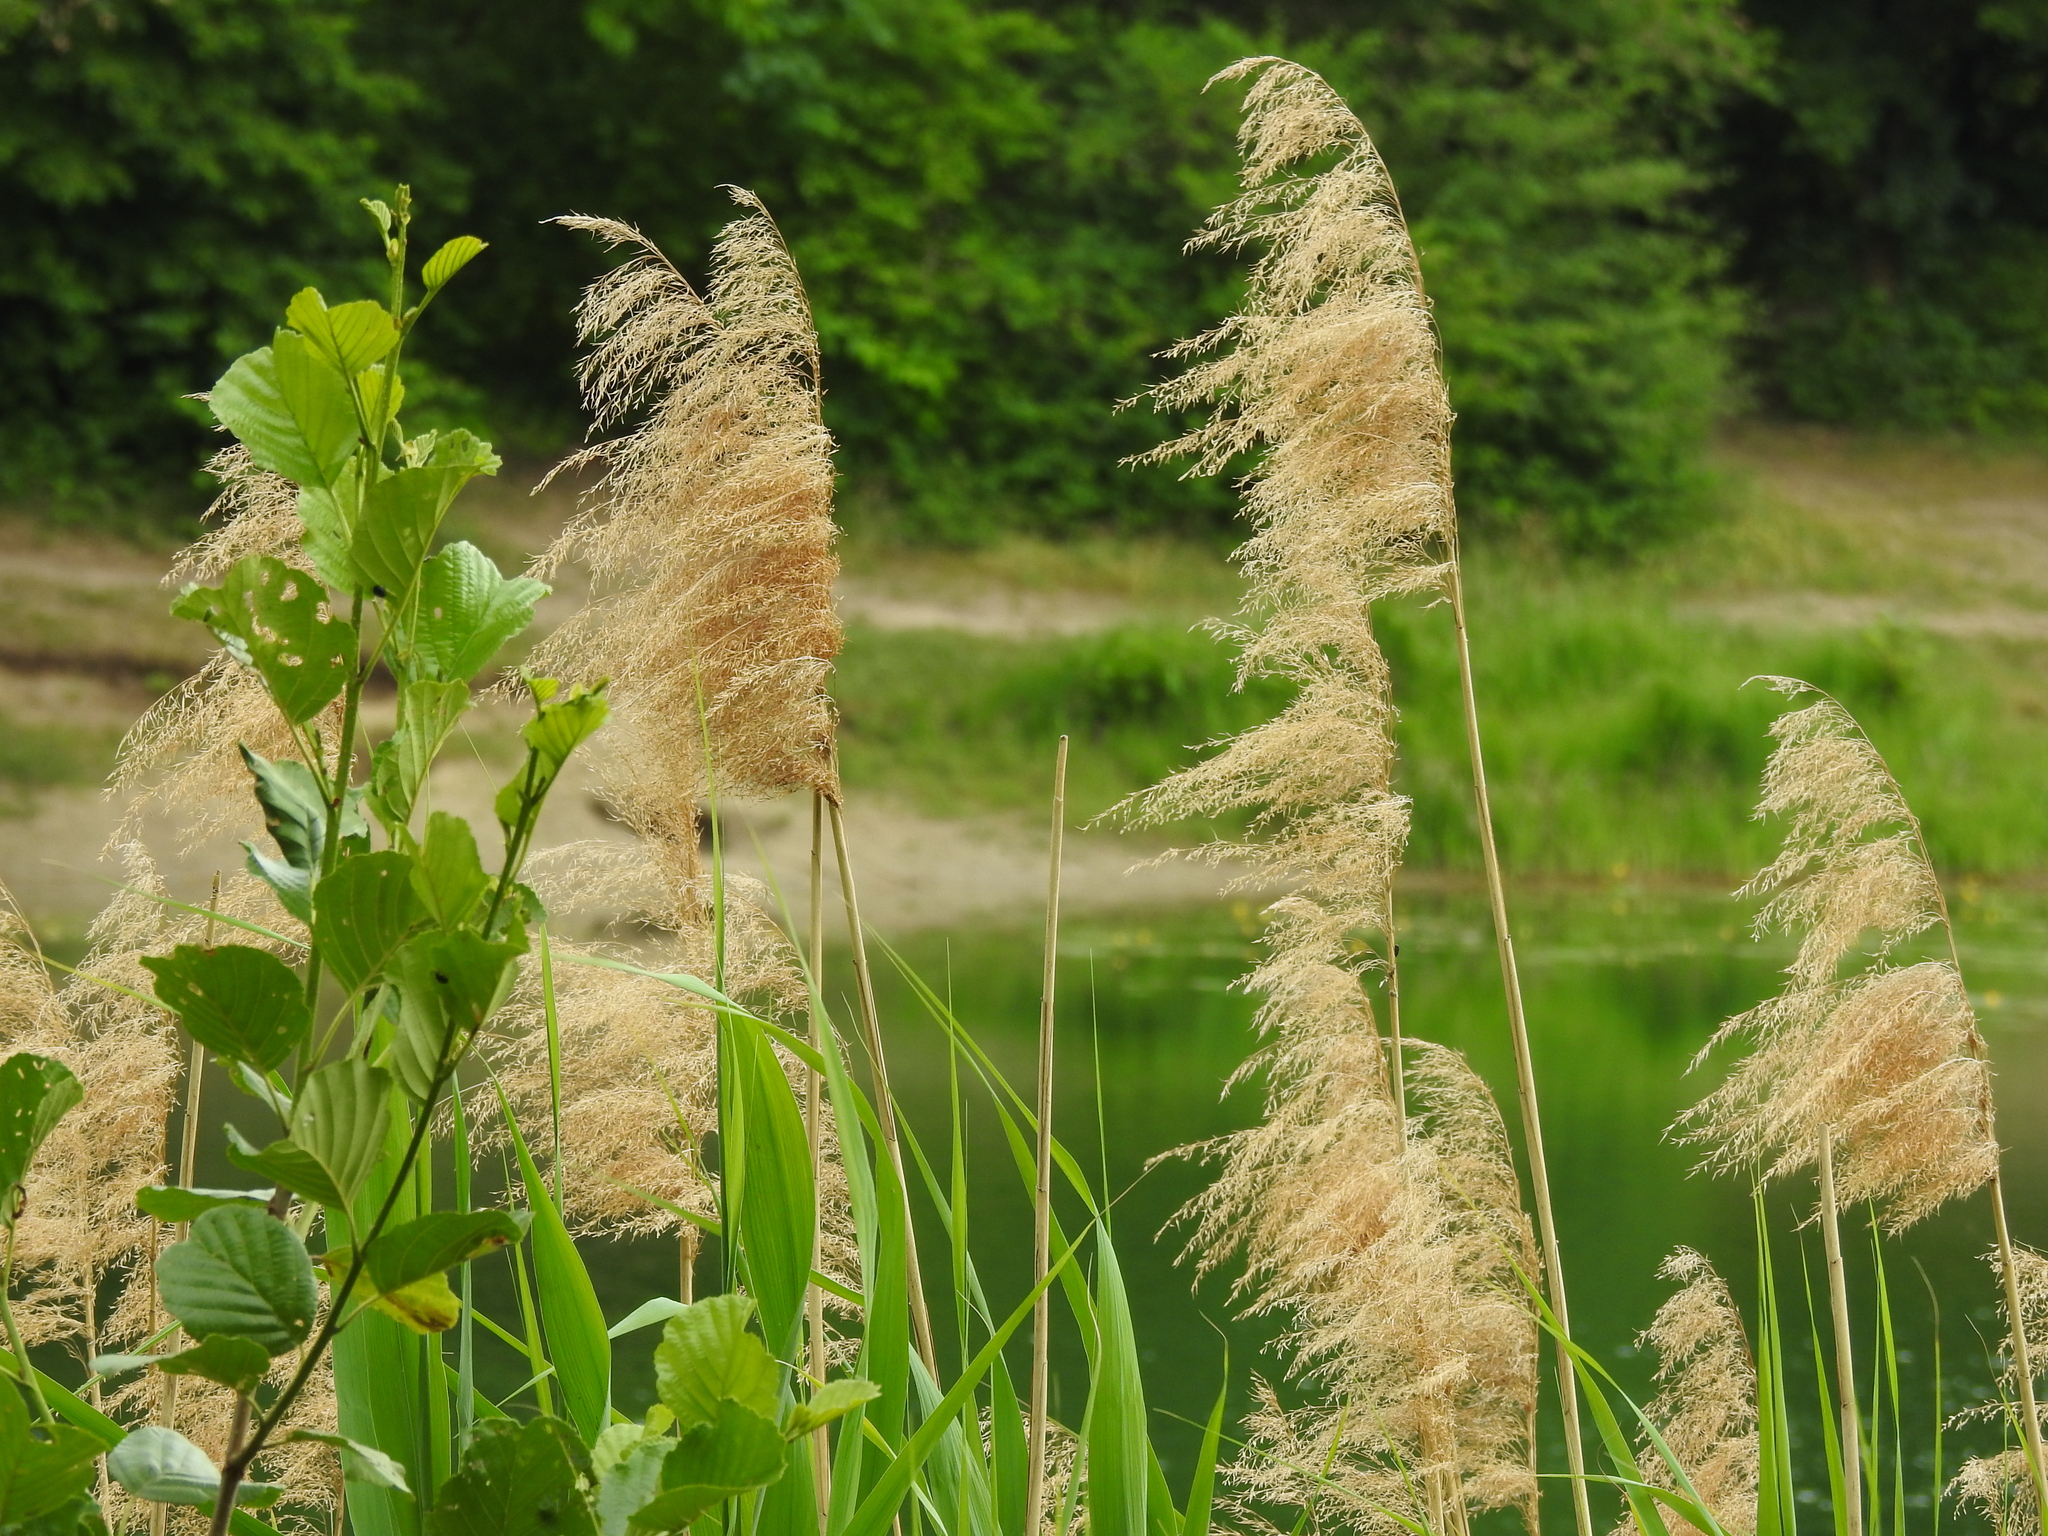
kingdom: Plantae
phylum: Tracheophyta
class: Liliopsida
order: Poales
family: Poaceae
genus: Phragmites
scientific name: Phragmites australis
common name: Common reed
